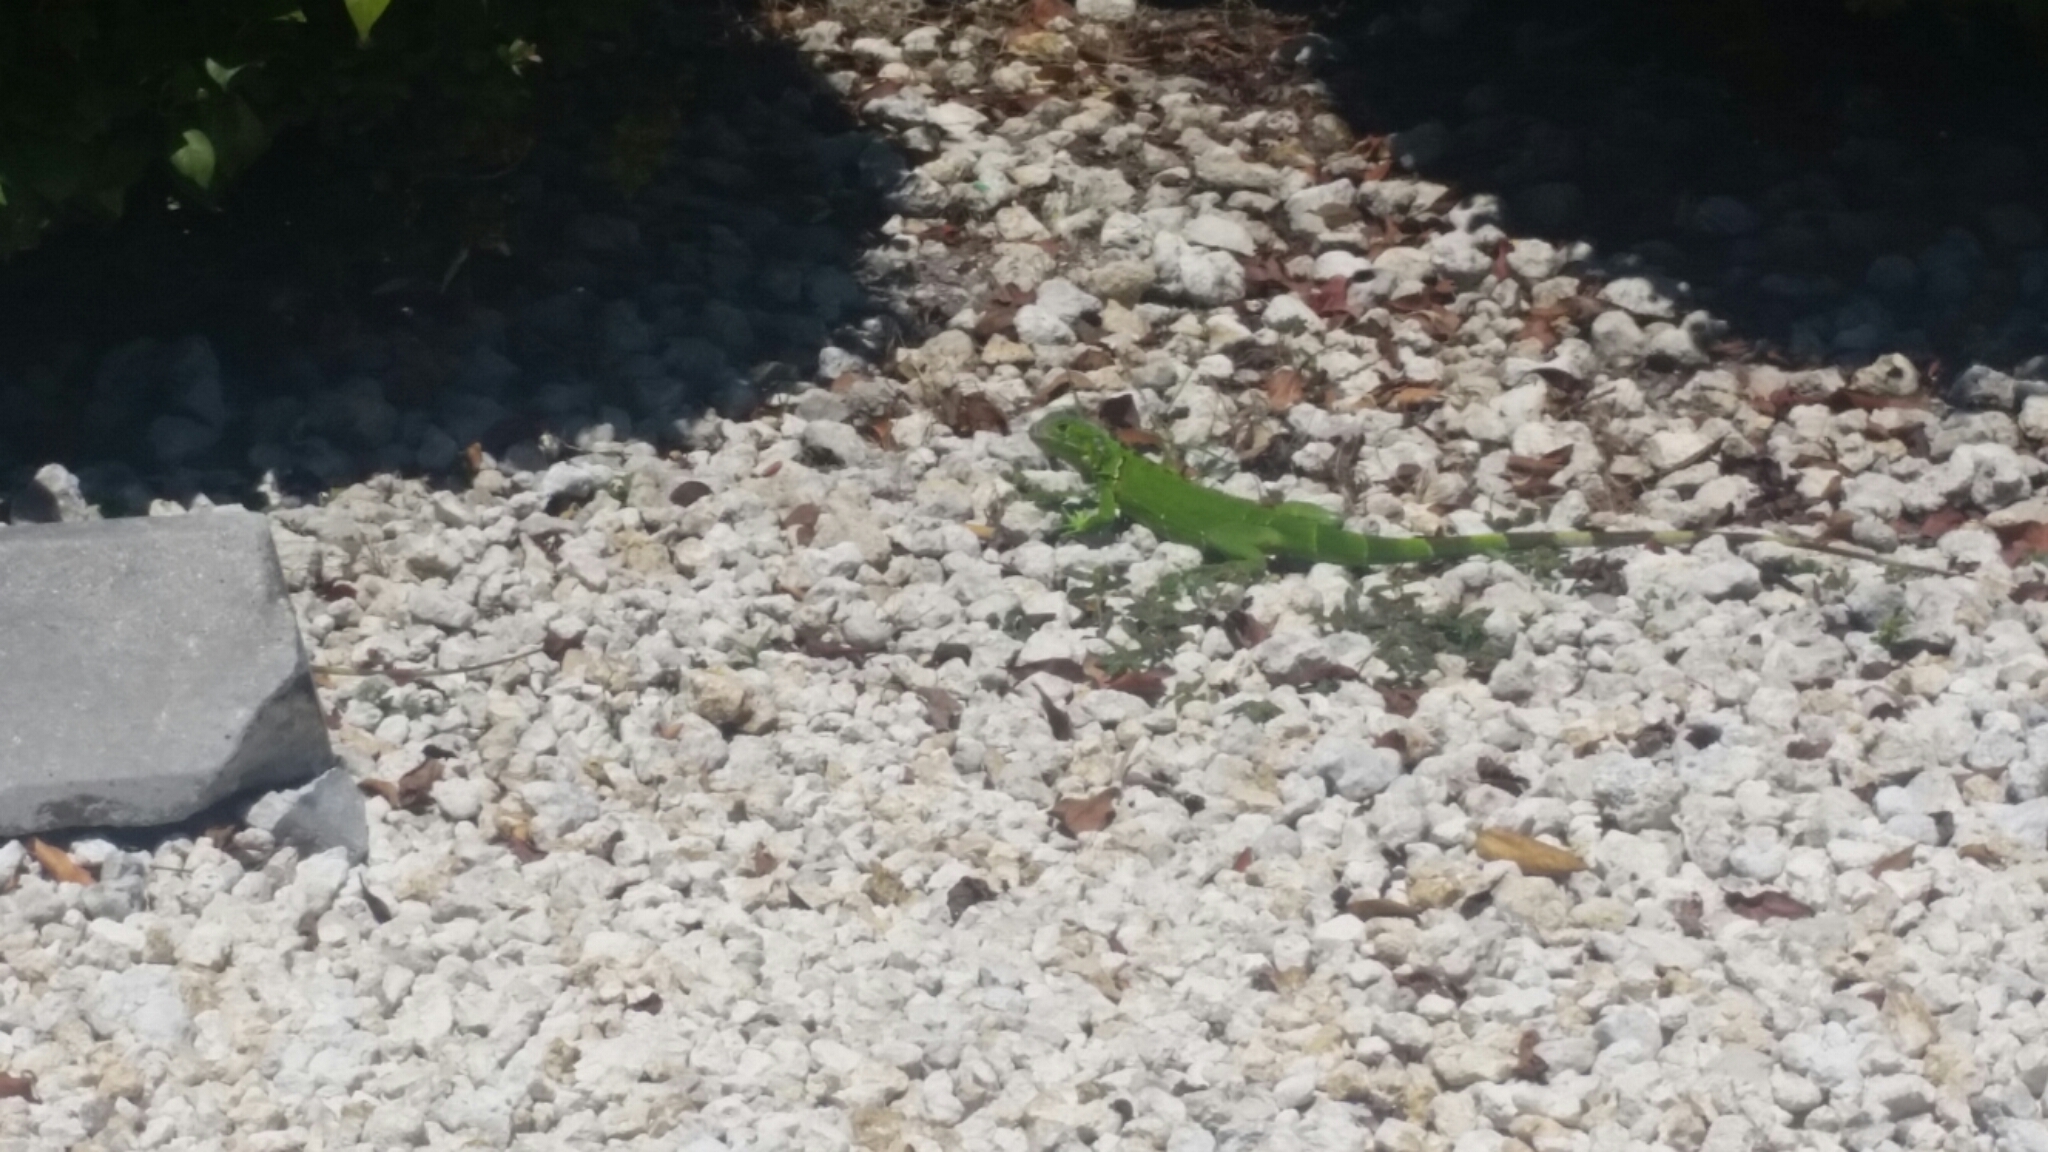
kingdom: Animalia
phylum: Chordata
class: Squamata
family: Iguanidae
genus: Iguana
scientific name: Iguana iguana
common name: Green iguana
